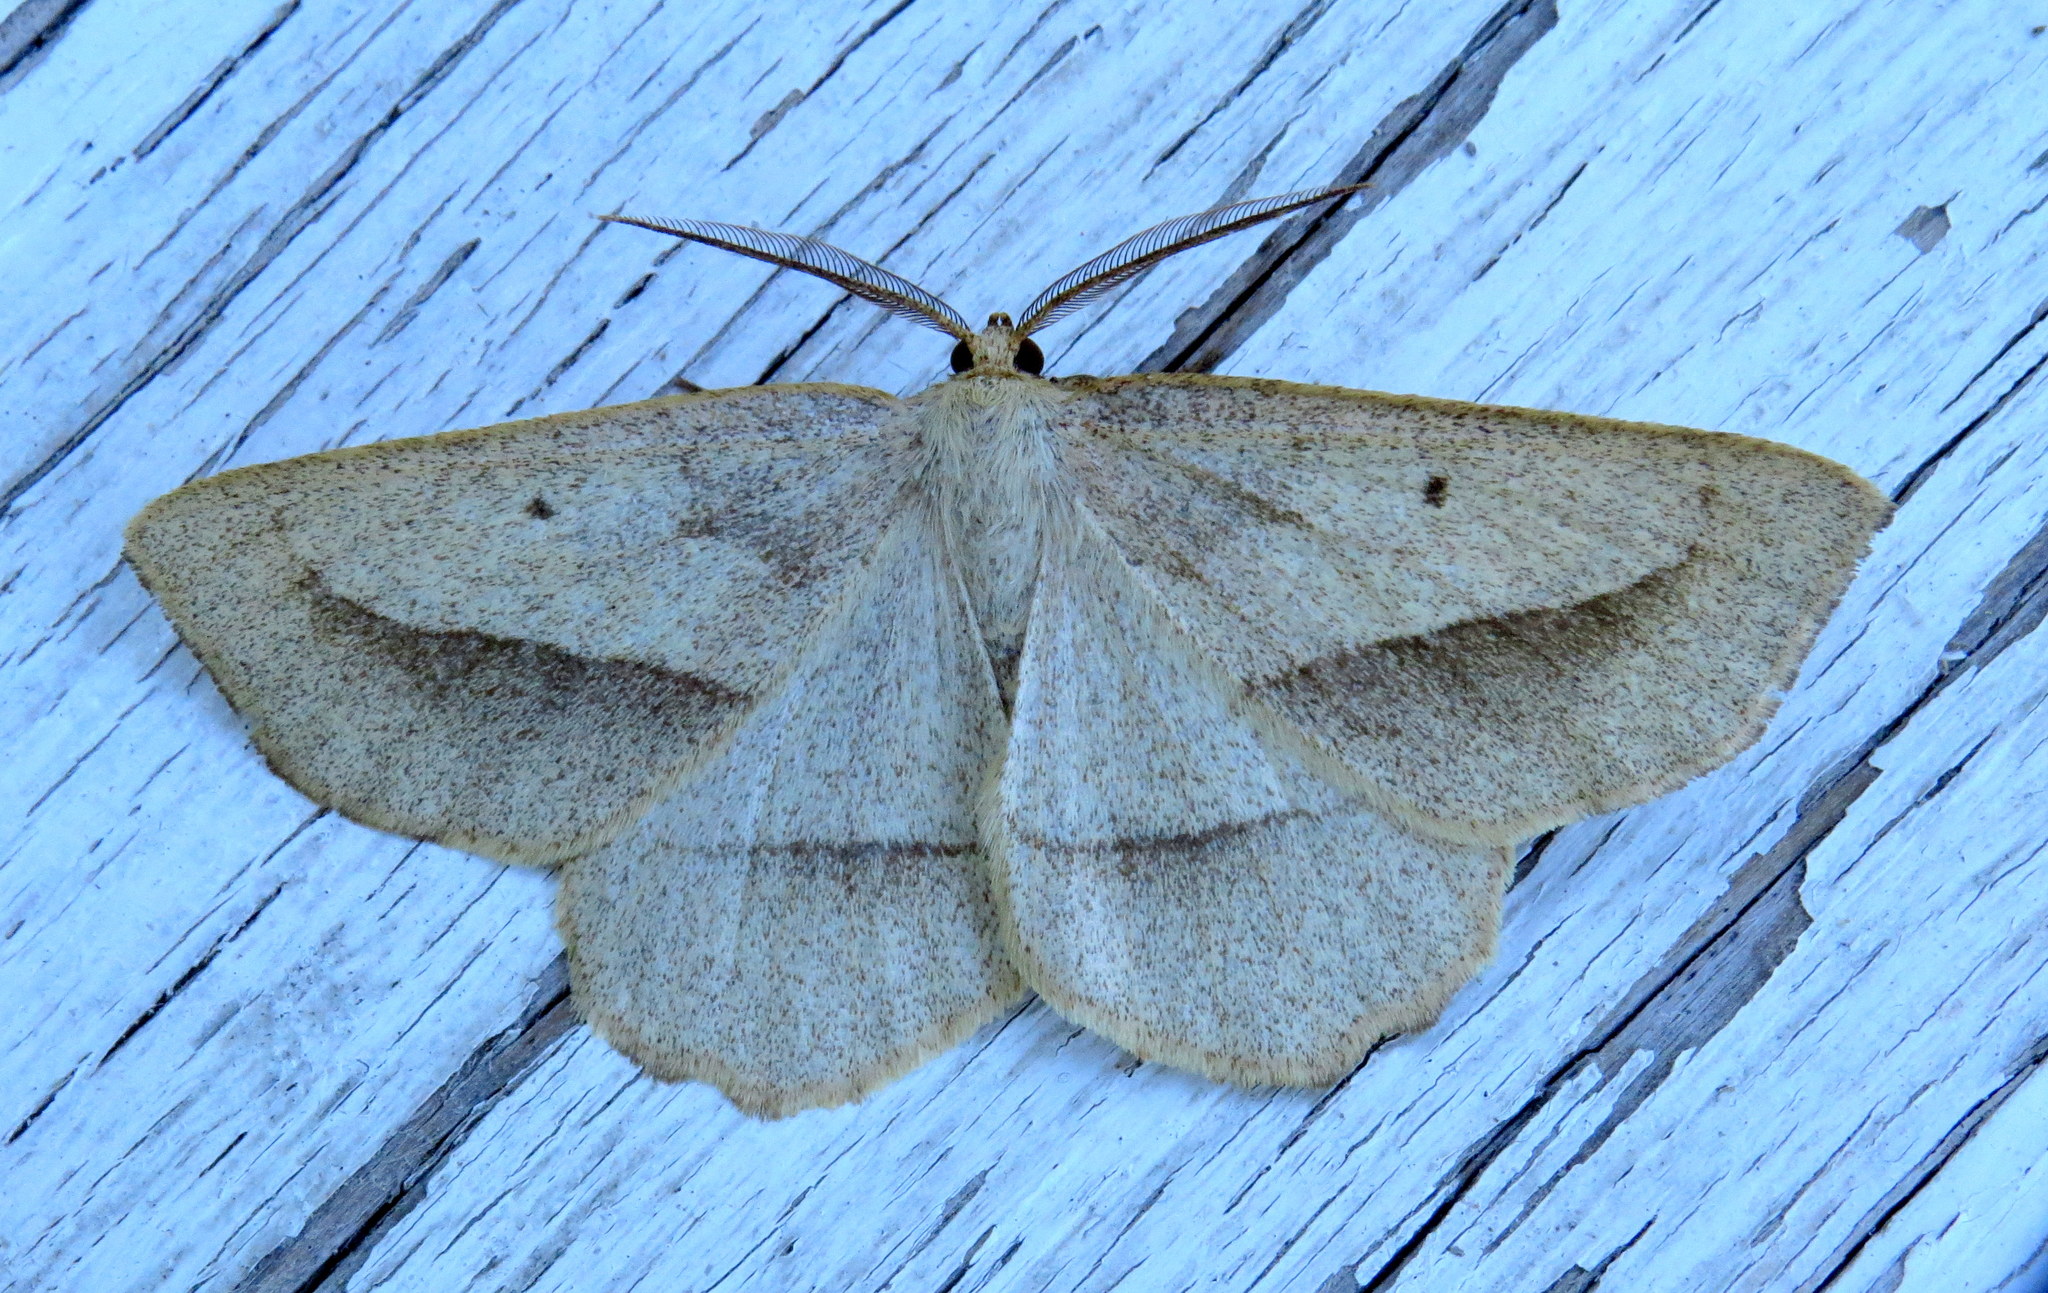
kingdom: Animalia
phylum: Arthropoda
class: Insecta
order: Lepidoptera
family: Geometridae
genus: Euchlaena
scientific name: Euchlaena irraria
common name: Least-marked euchlaena
